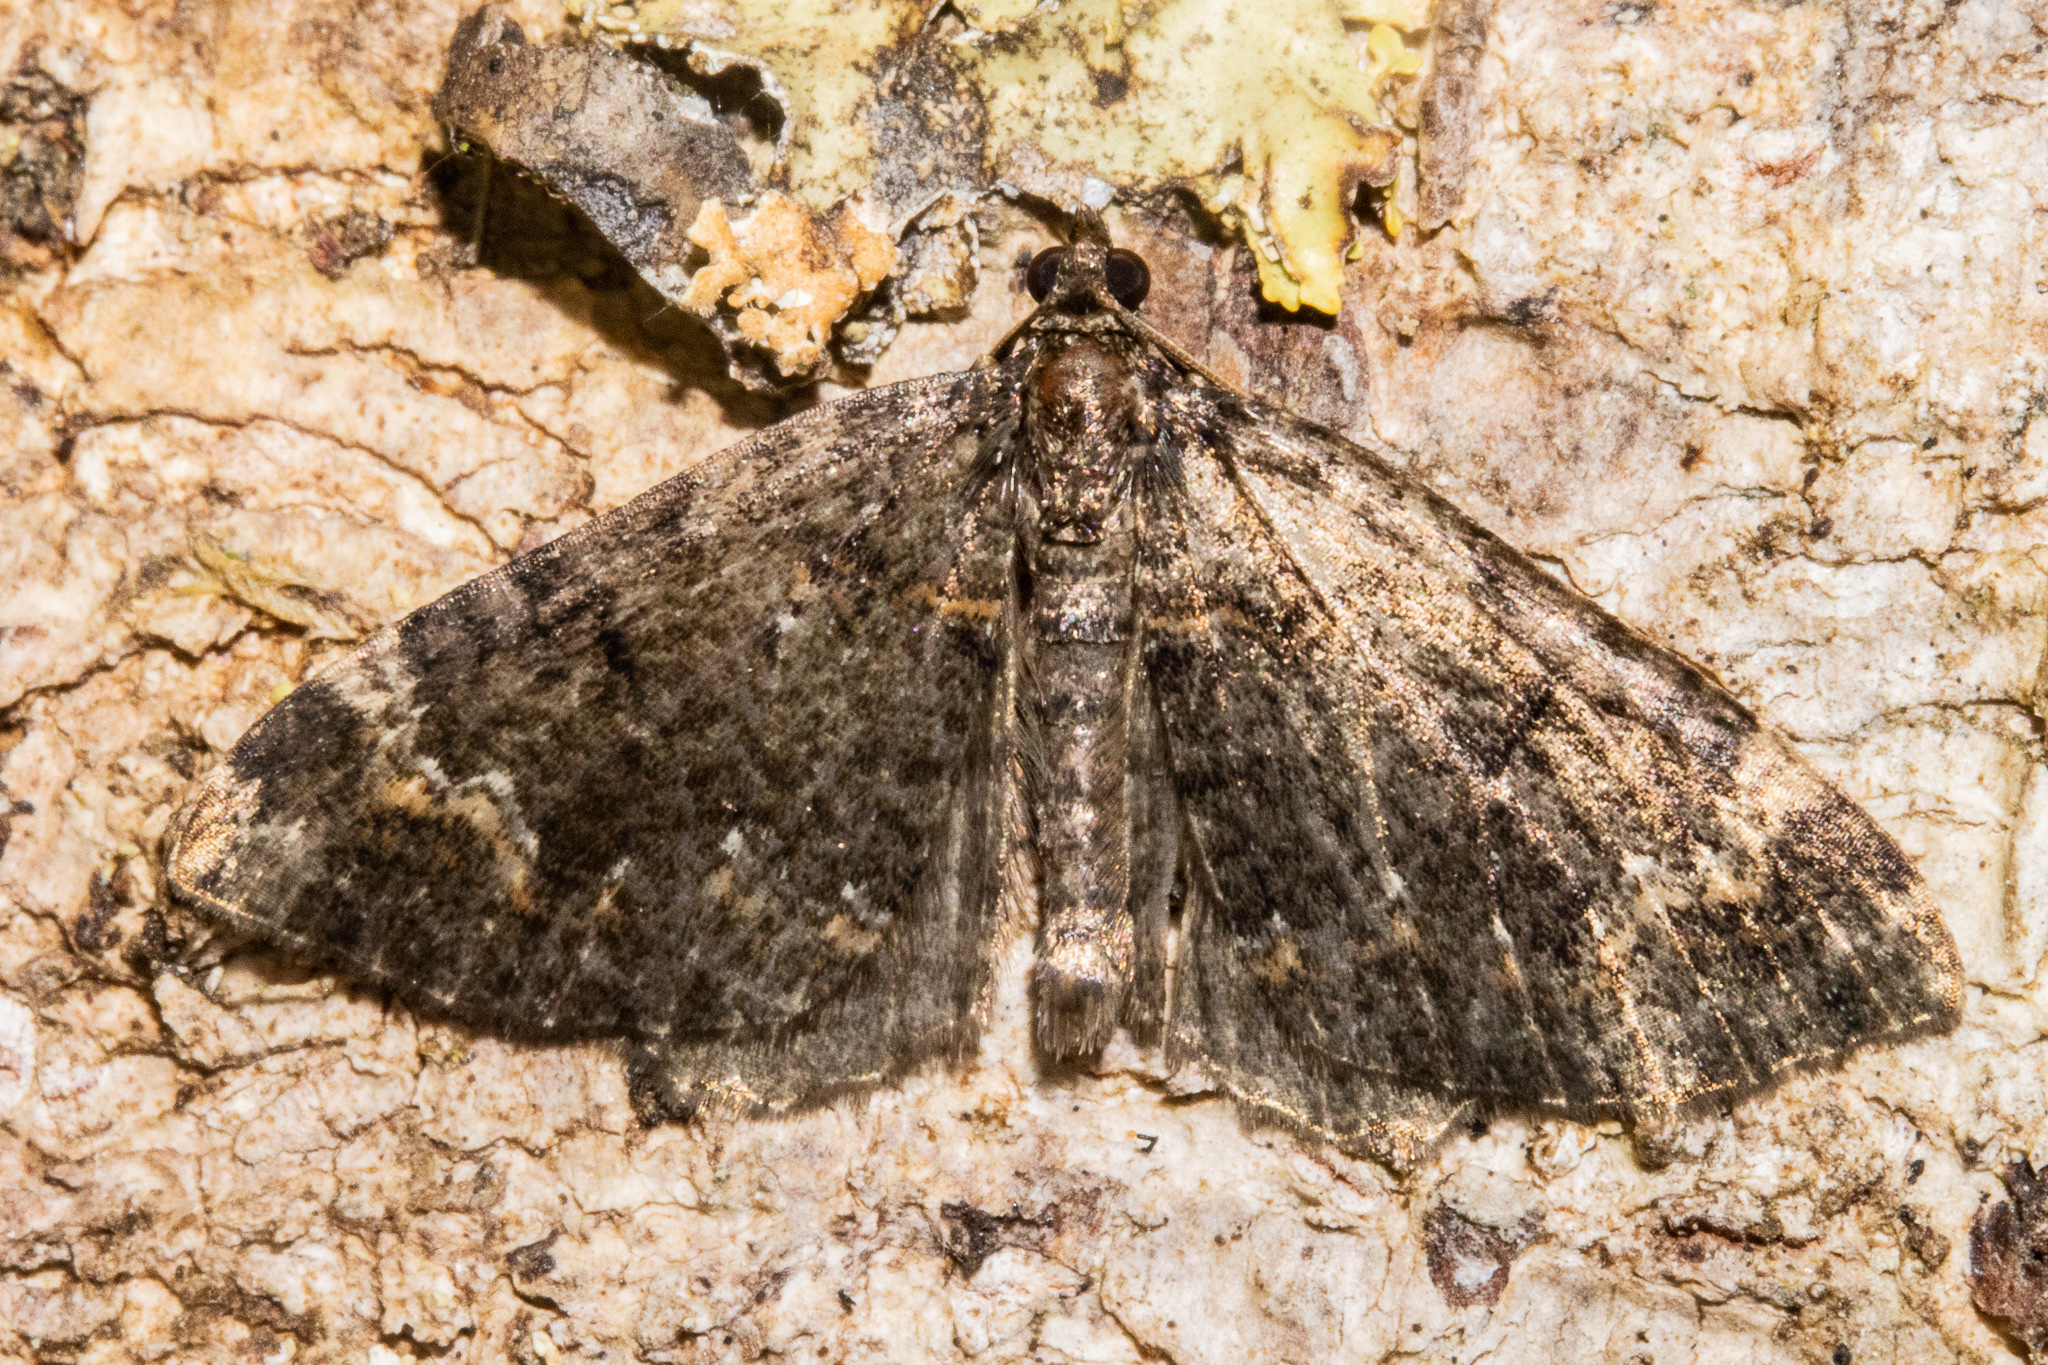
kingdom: Animalia
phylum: Arthropoda
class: Insecta
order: Lepidoptera
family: Geometridae
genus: Hydriomena
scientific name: Hydriomena hemizona
